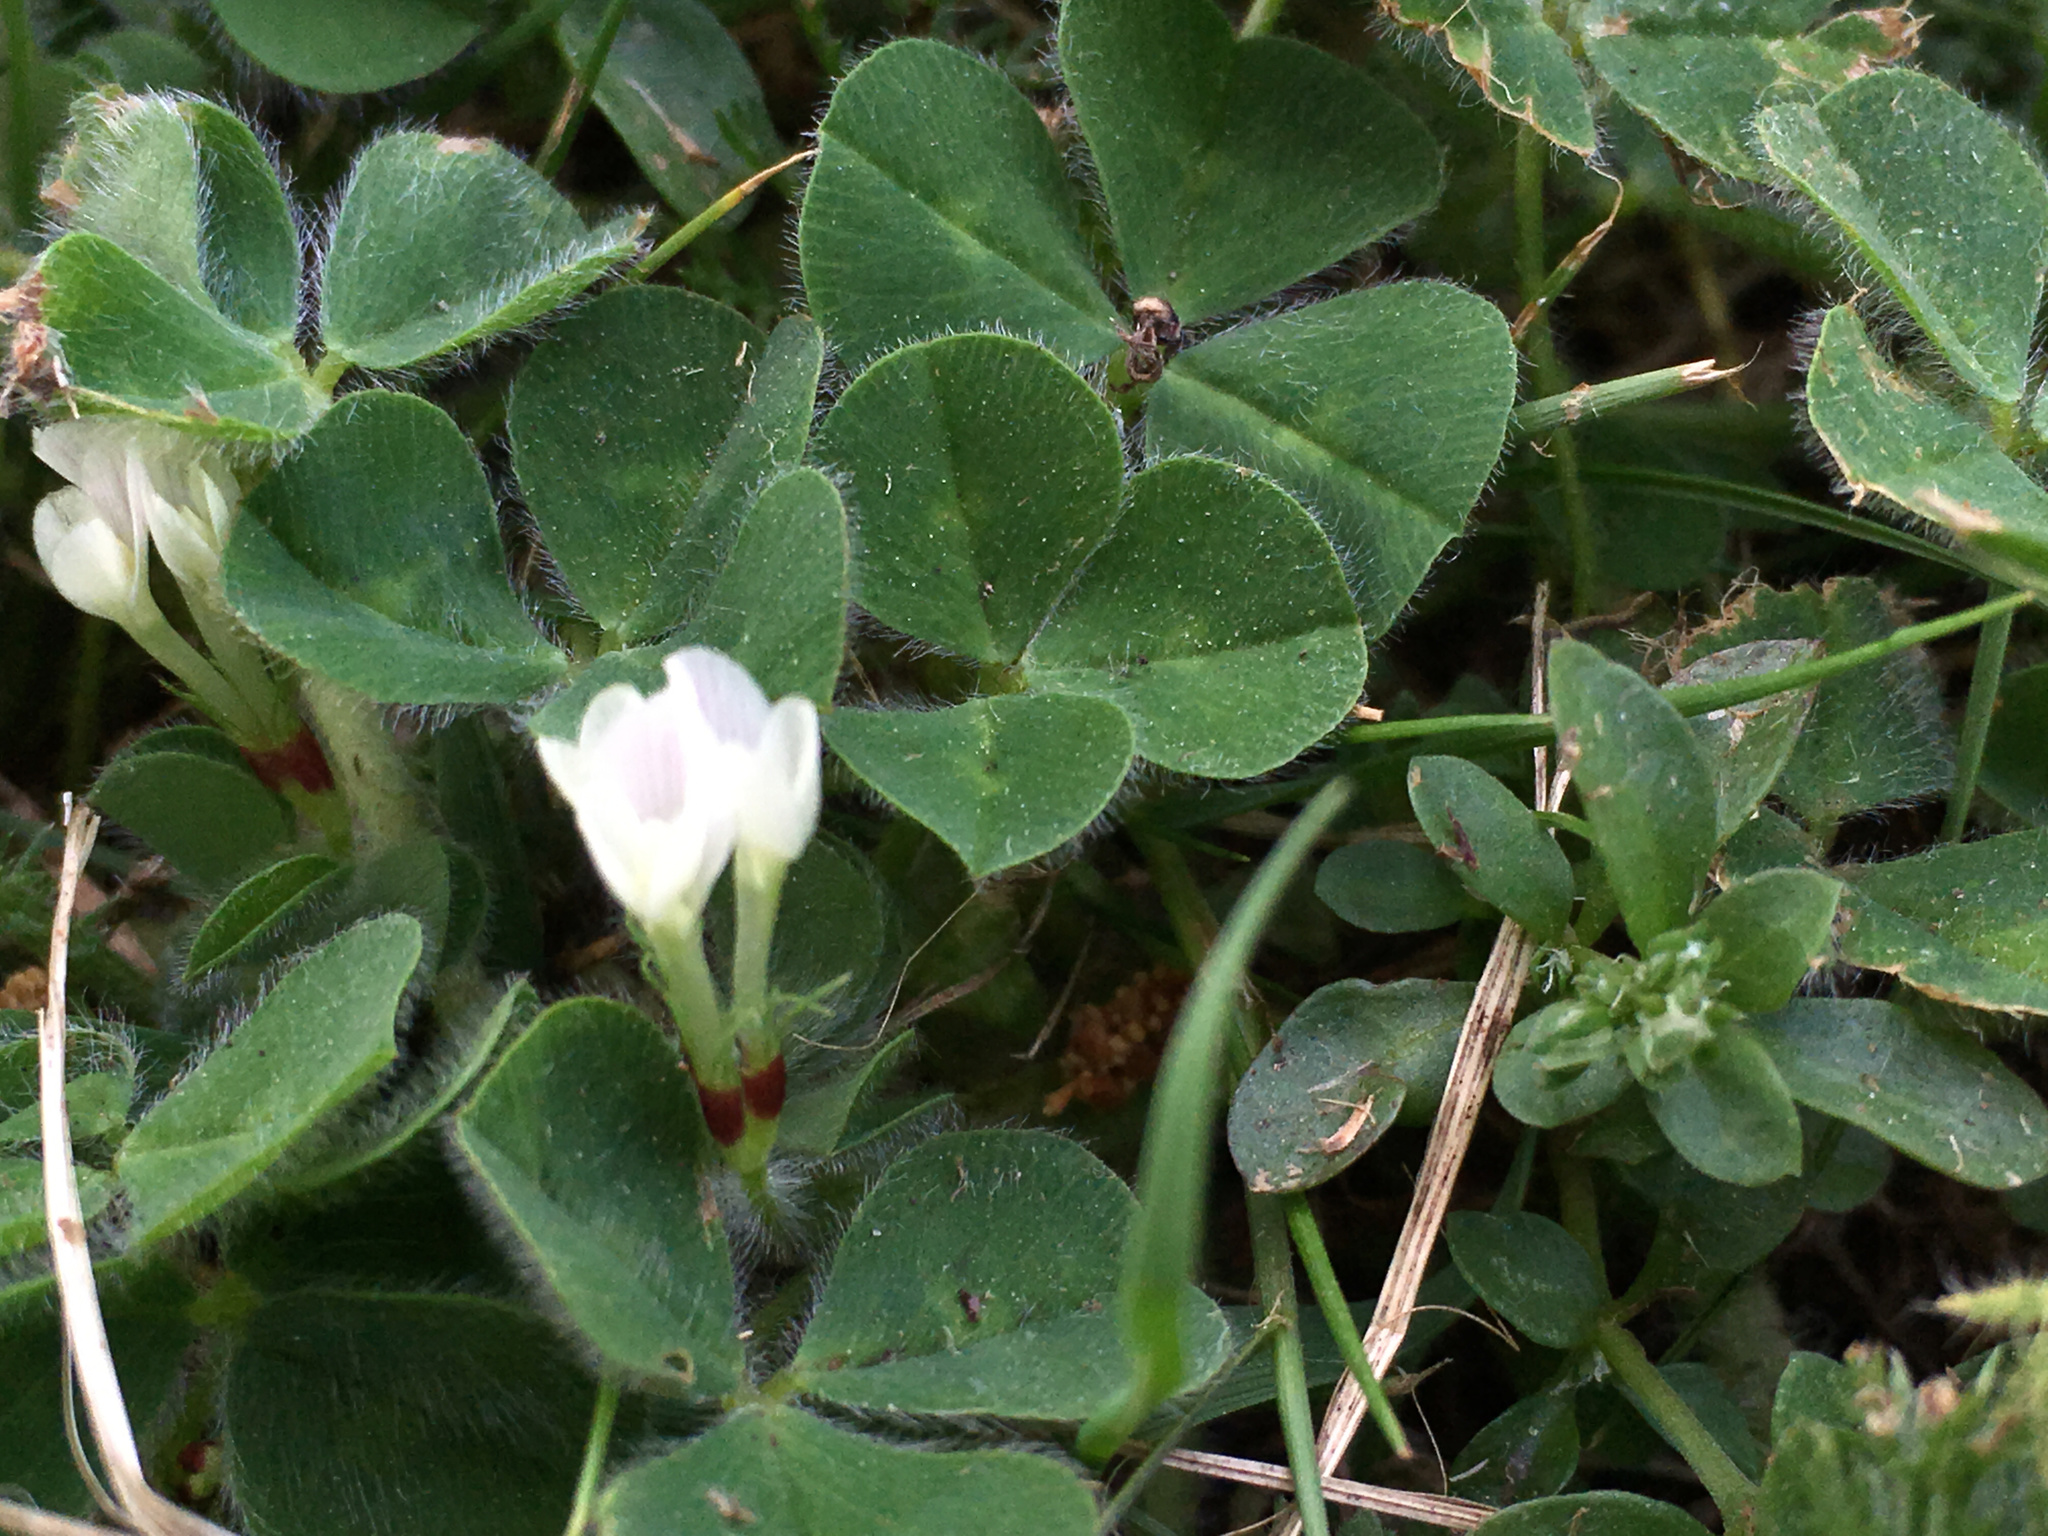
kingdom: Plantae
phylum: Tracheophyta
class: Magnoliopsida
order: Fabales
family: Fabaceae
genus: Trifolium
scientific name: Trifolium subterraneum
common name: Subterranean clover
